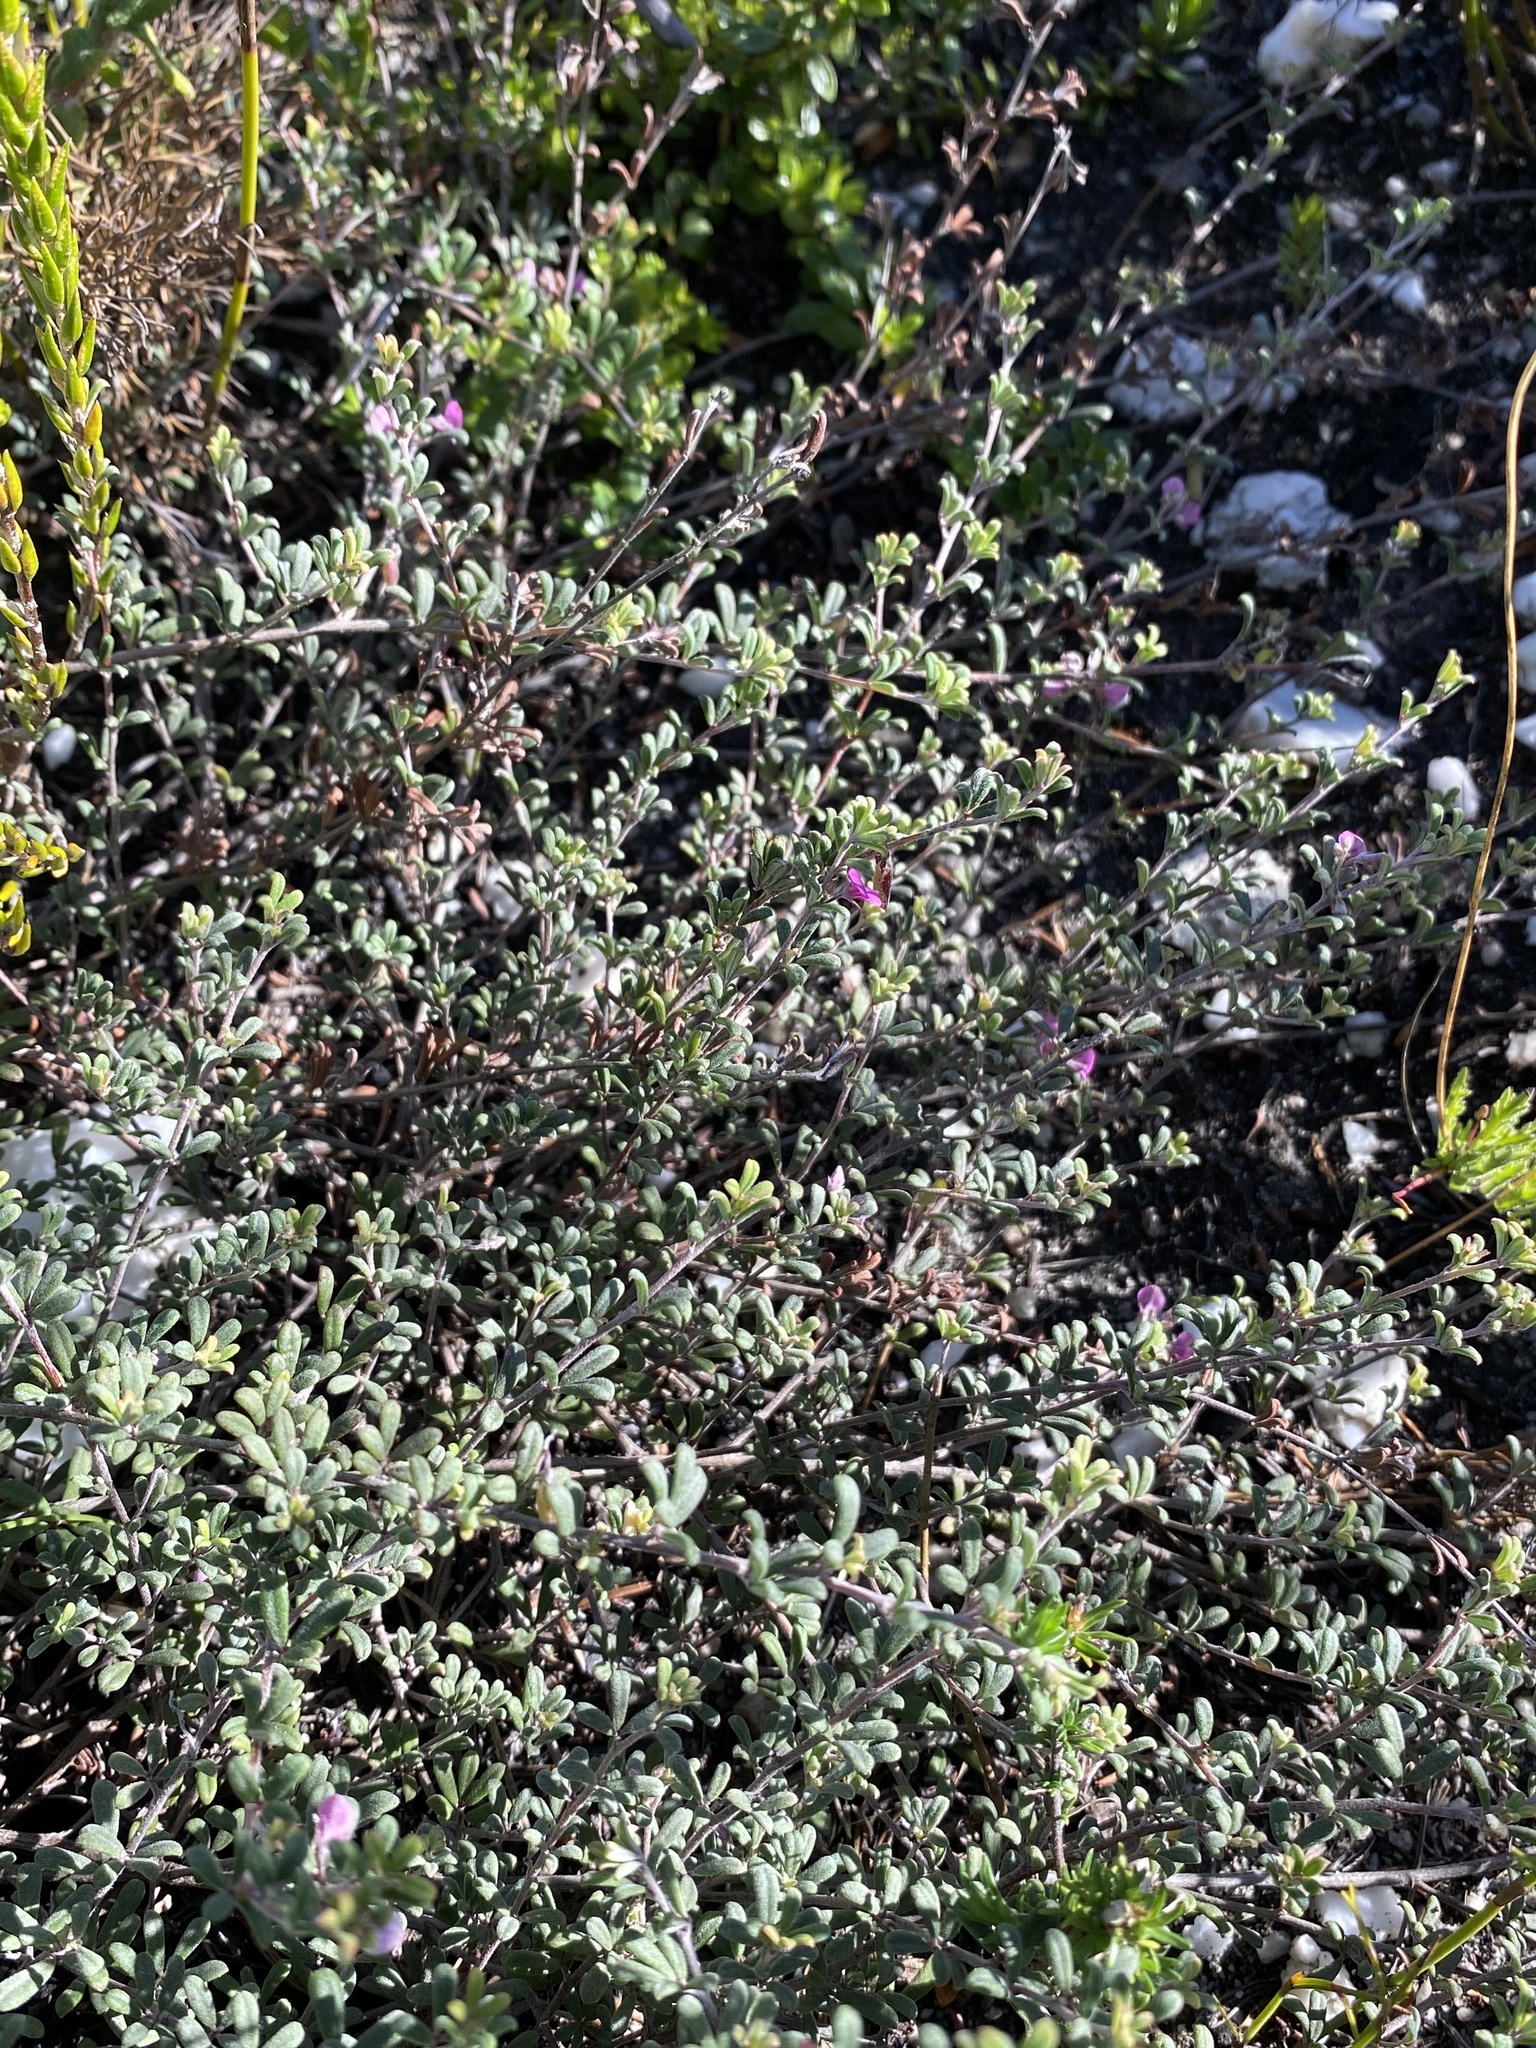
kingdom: Plantae
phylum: Tracheophyta
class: Magnoliopsida
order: Fabales
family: Fabaceae
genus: Indigofera
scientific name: Indigofera
